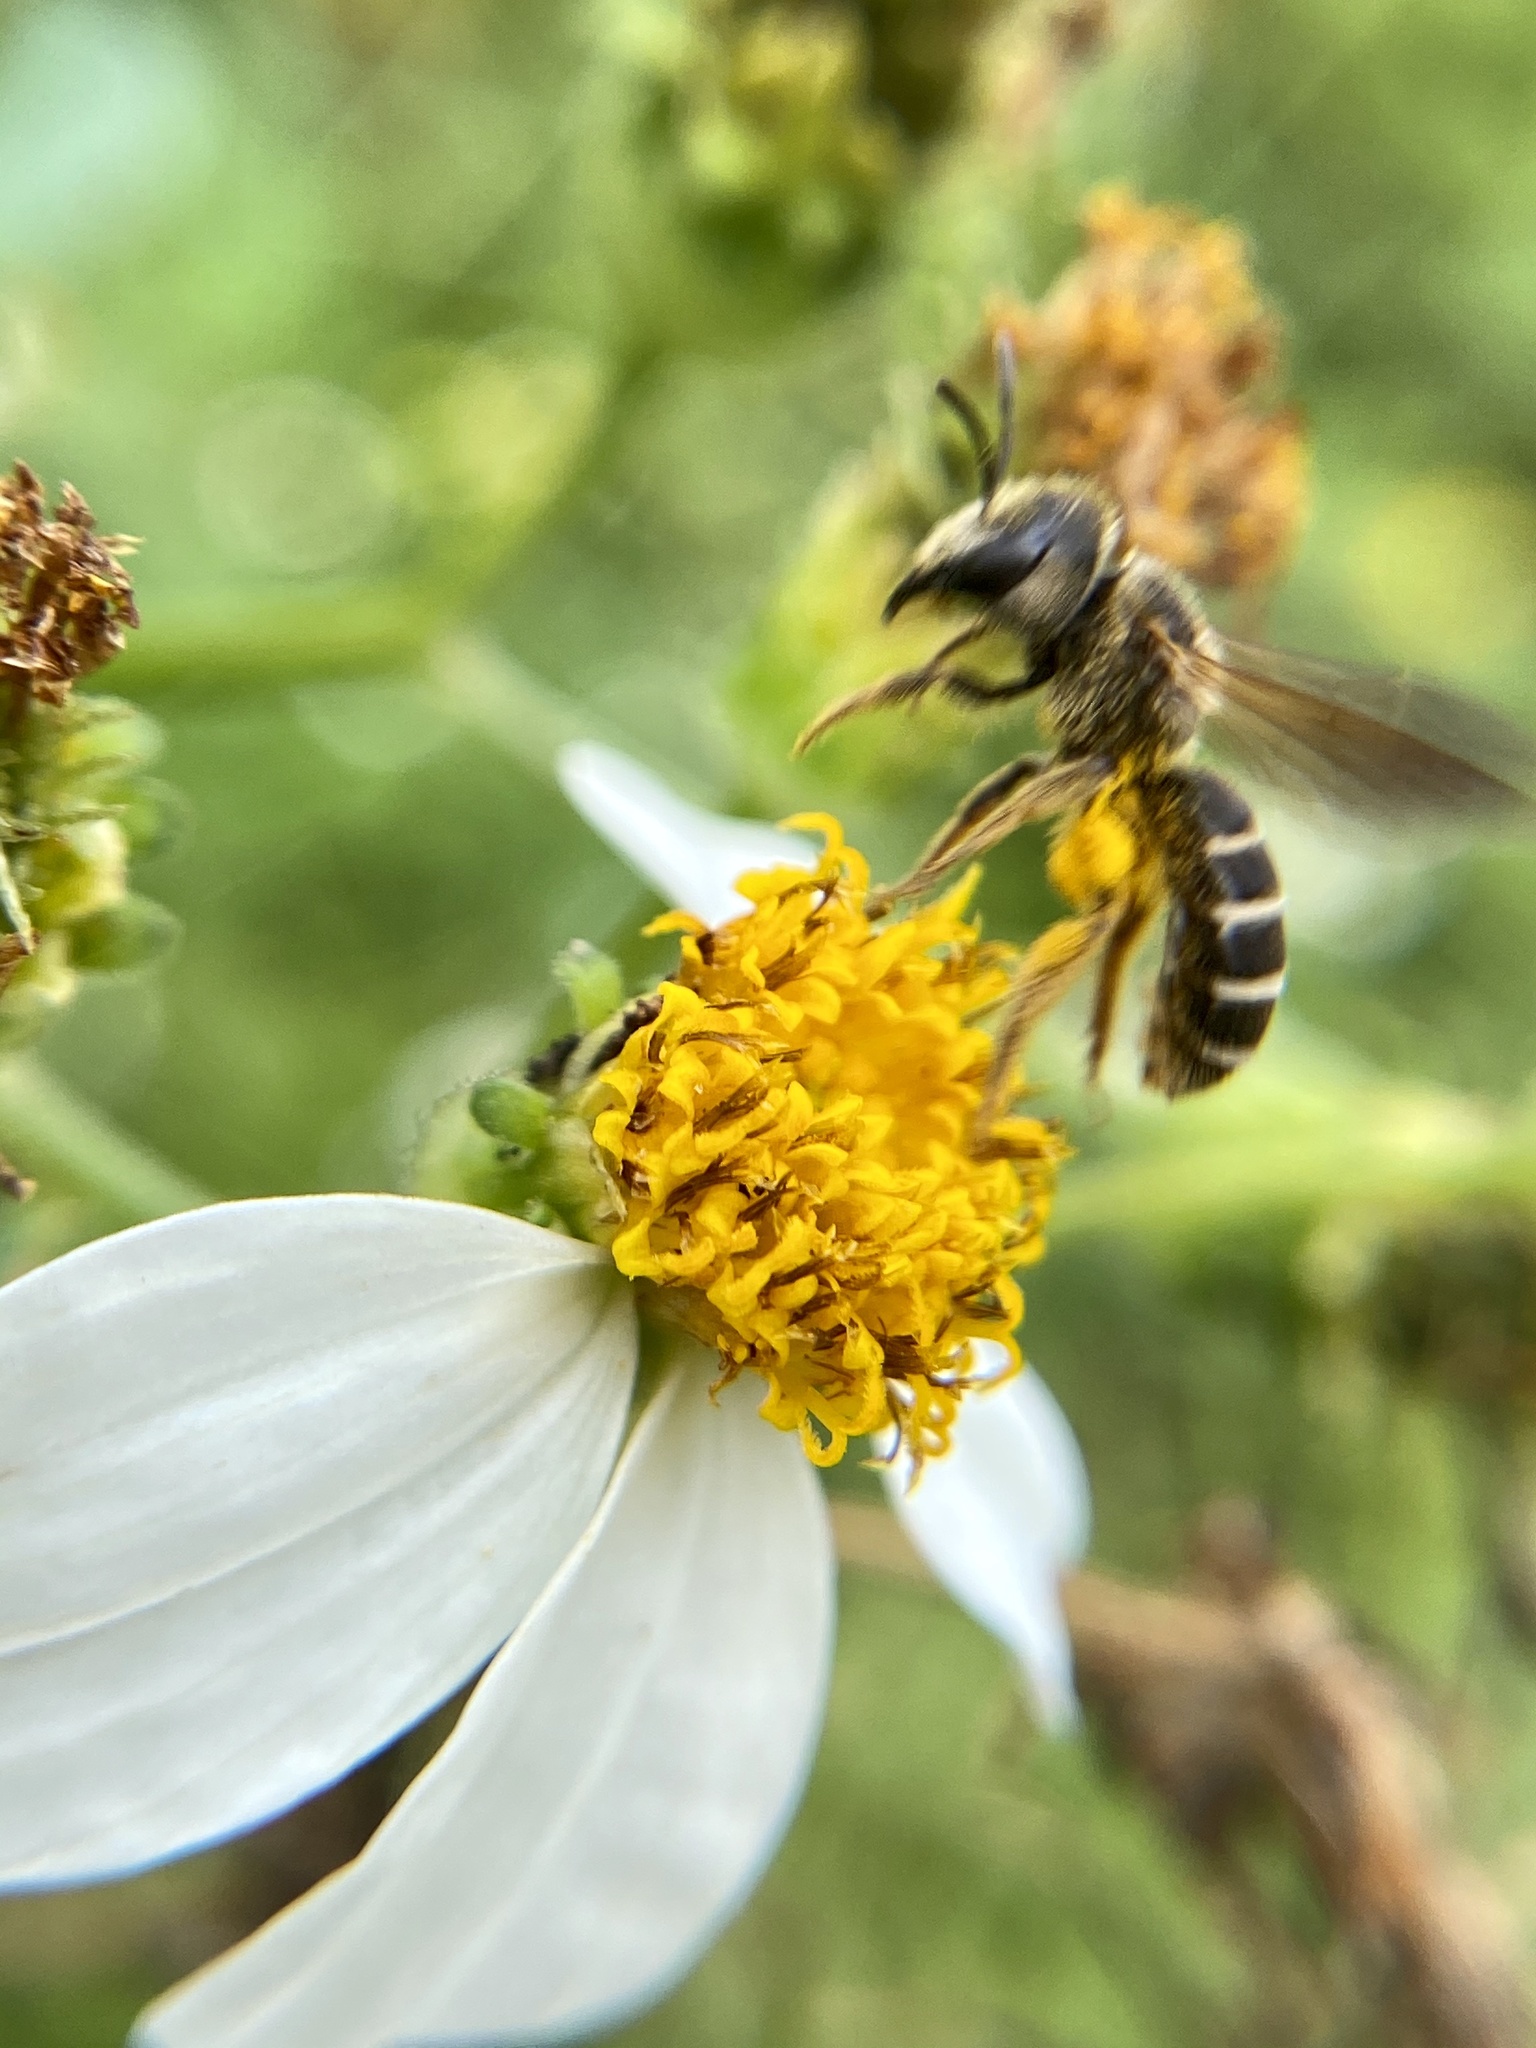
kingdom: Animalia
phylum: Arthropoda
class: Insecta
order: Hymenoptera
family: Halictidae
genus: Halictus
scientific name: Halictus poeyi
